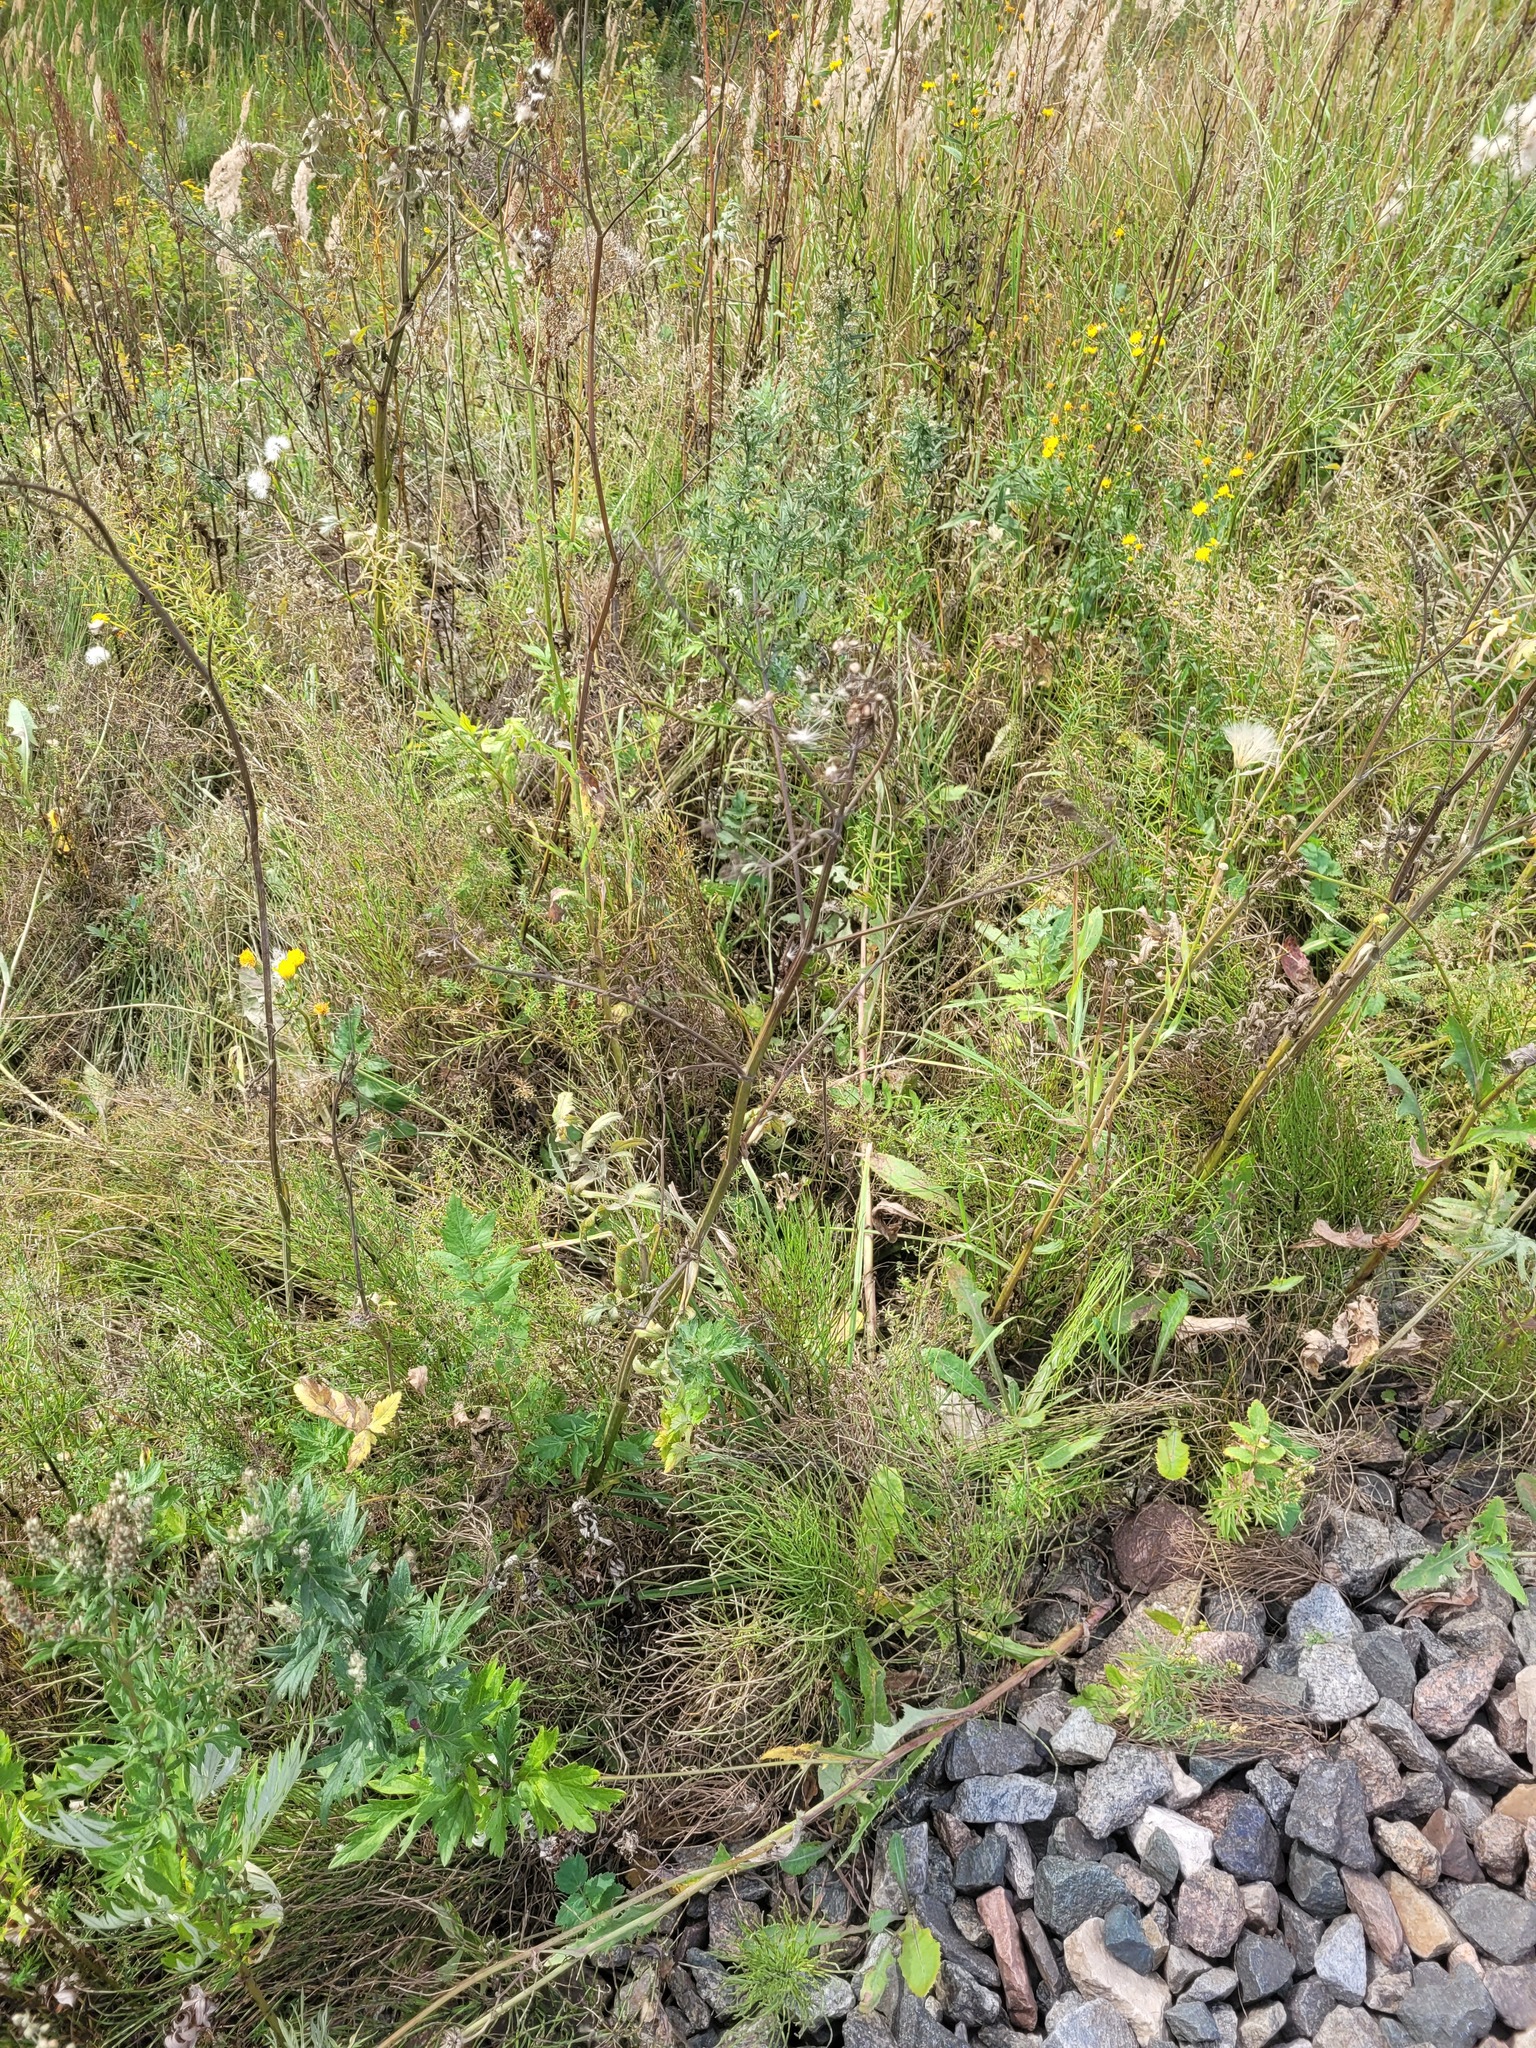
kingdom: Plantae
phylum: Tracheophyta
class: Magnoliopsida
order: Apiales
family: Apiaceae
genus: Pastinaca
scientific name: Pastinaca sativa
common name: Wild parsnip
